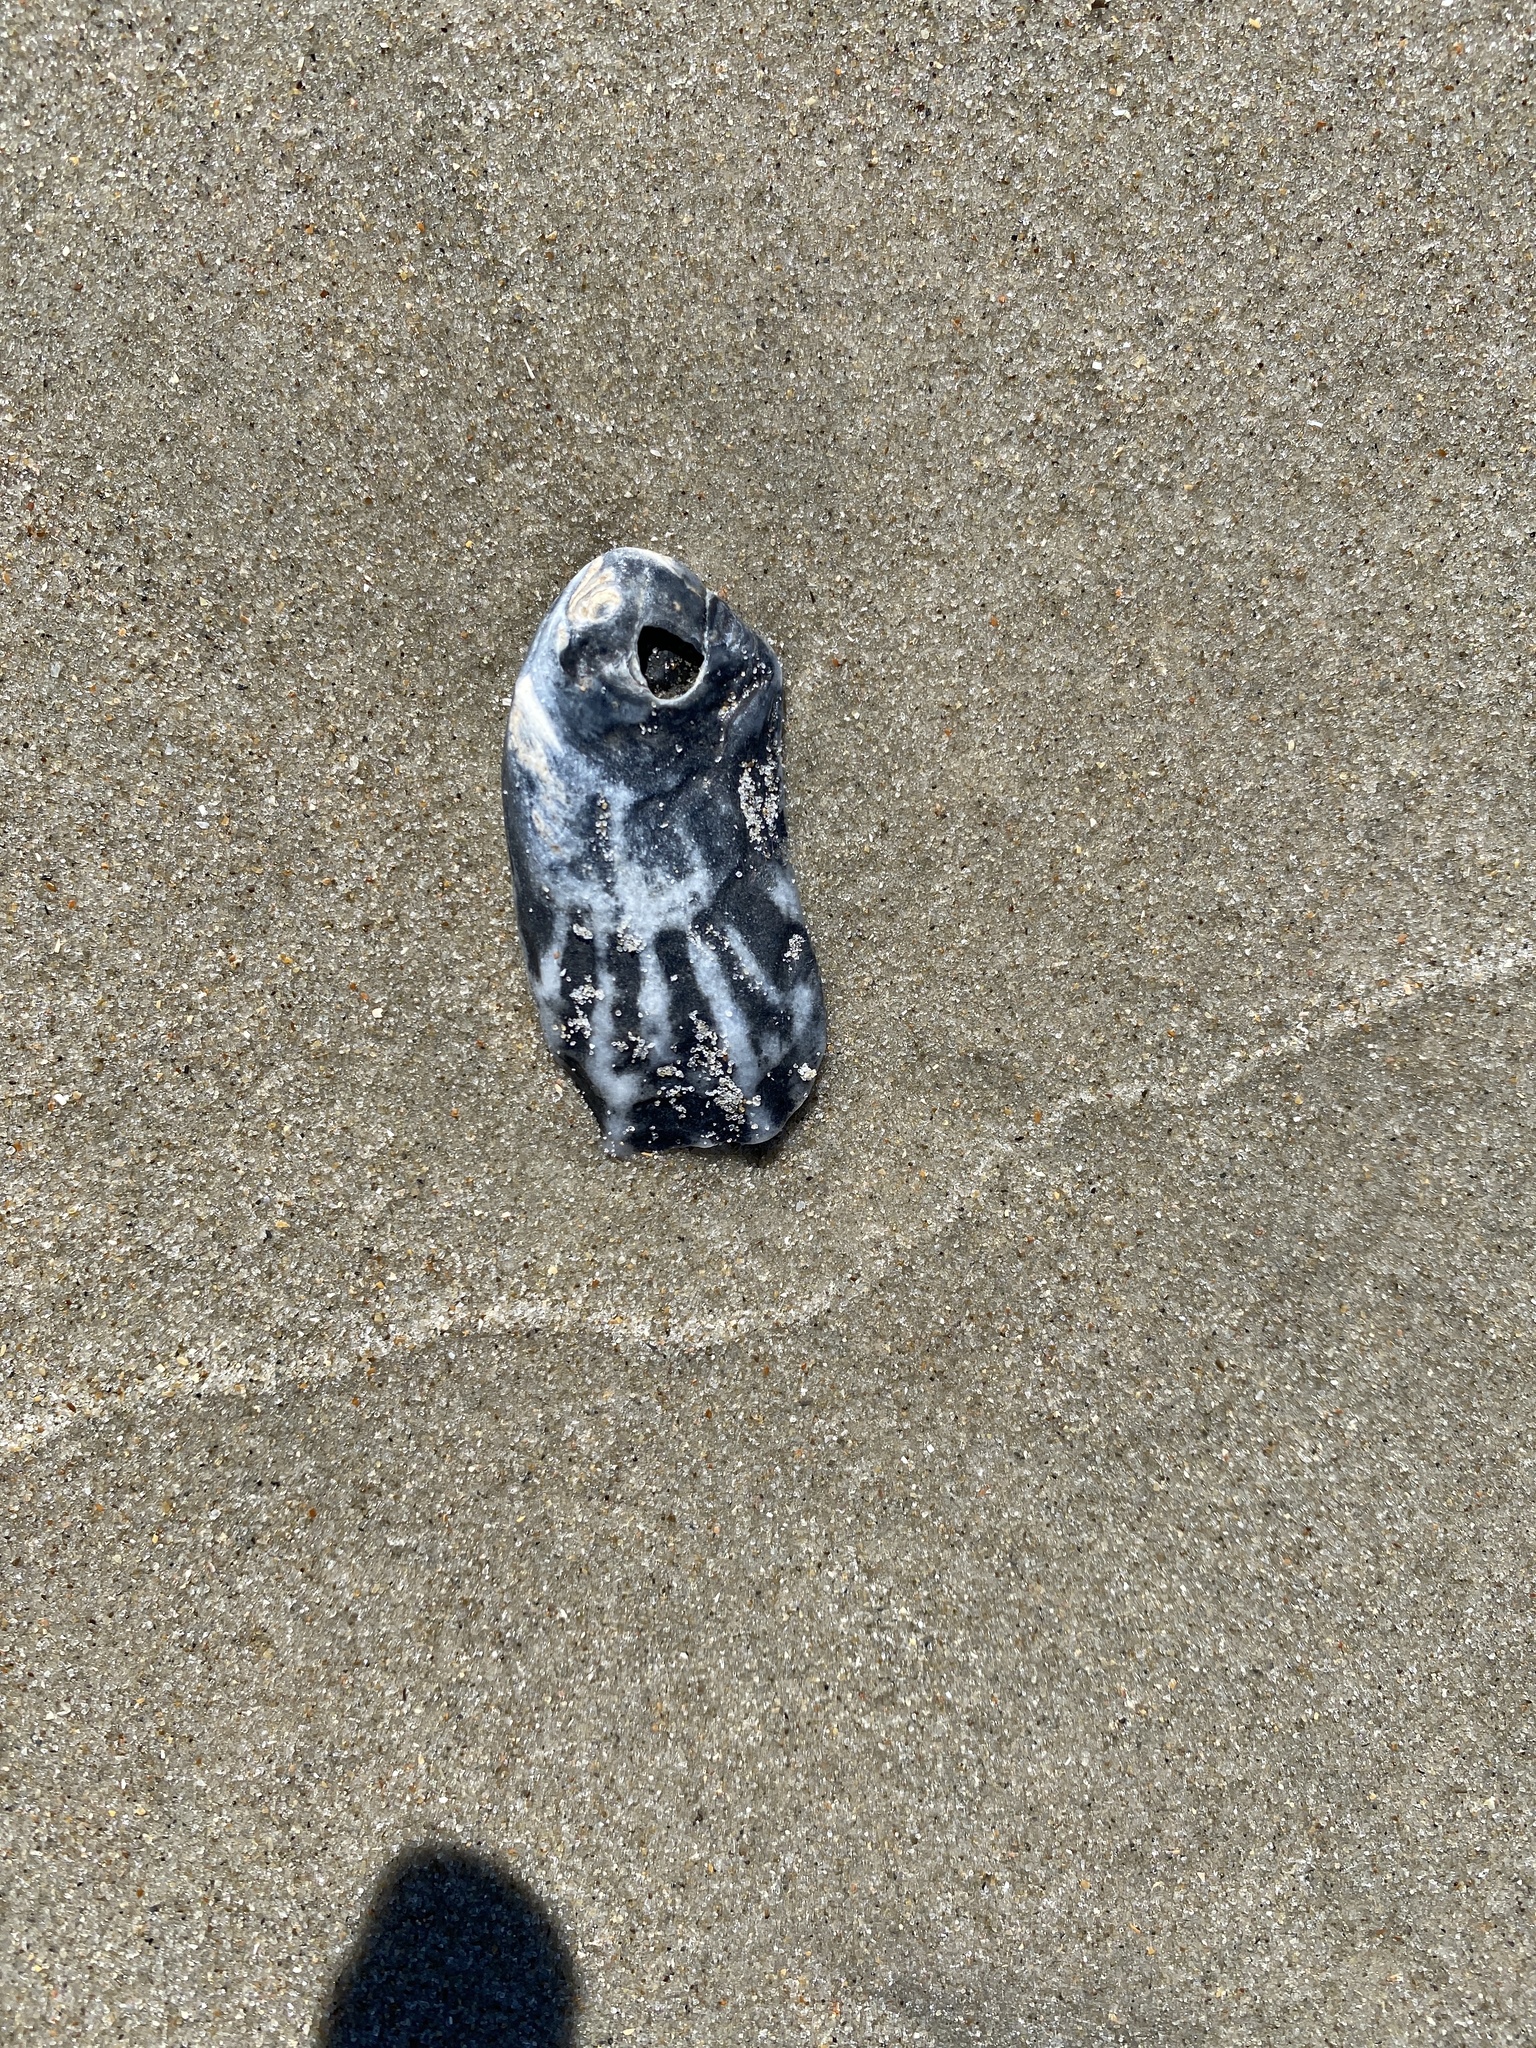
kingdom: Animalia
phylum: Mollusca
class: Bivalvia
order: Ostreida
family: Ostreidae
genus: Crassostrea
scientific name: Crassostrea virginica
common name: American oyster
